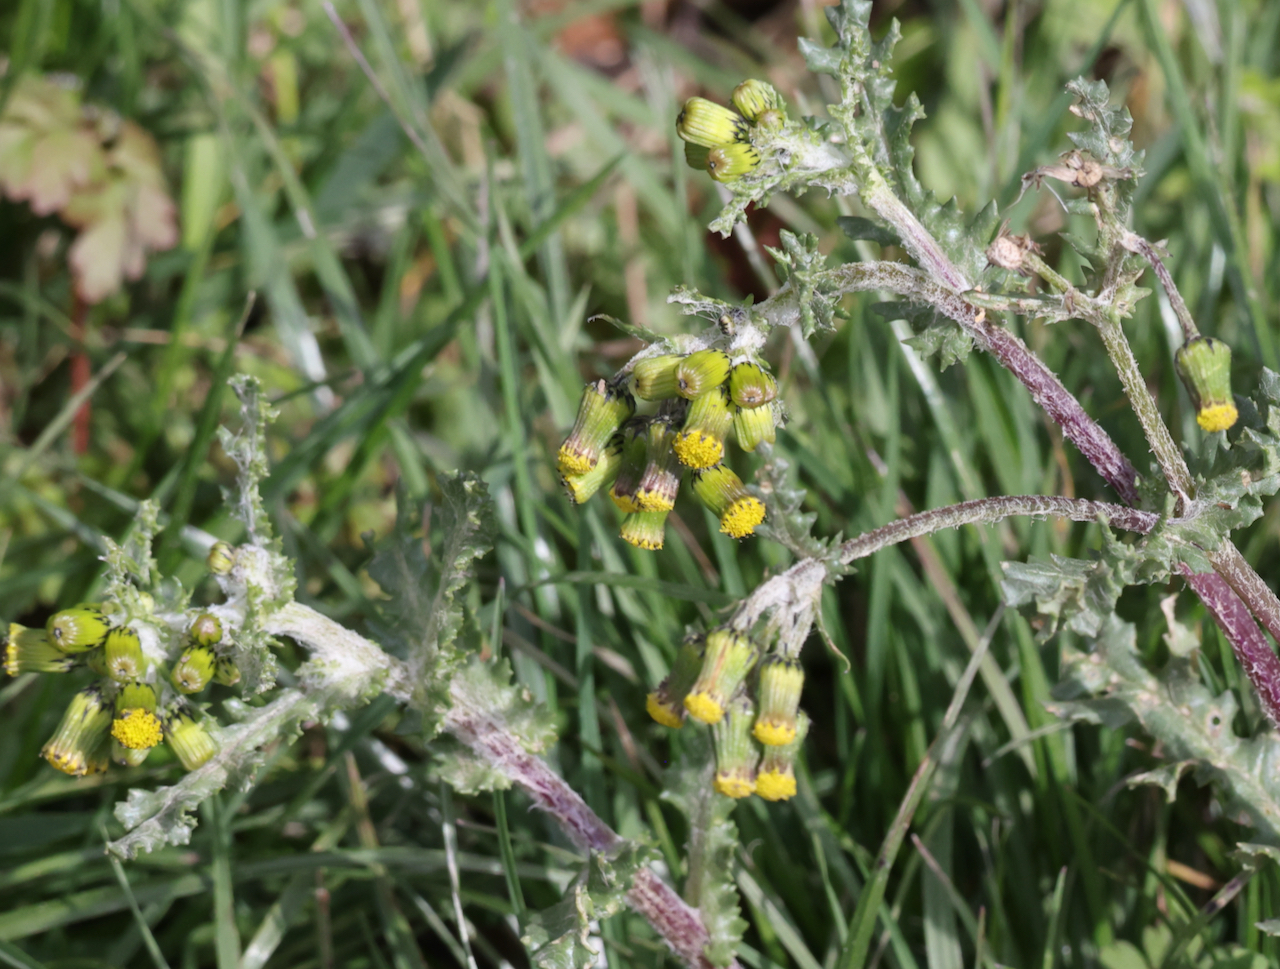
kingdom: Plantae
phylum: Tracheophyta
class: Magnoliopsida
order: Asterales
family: Asteraceae
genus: Senecio
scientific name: Senecio vulgaris
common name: Old-man-in-the-spring
